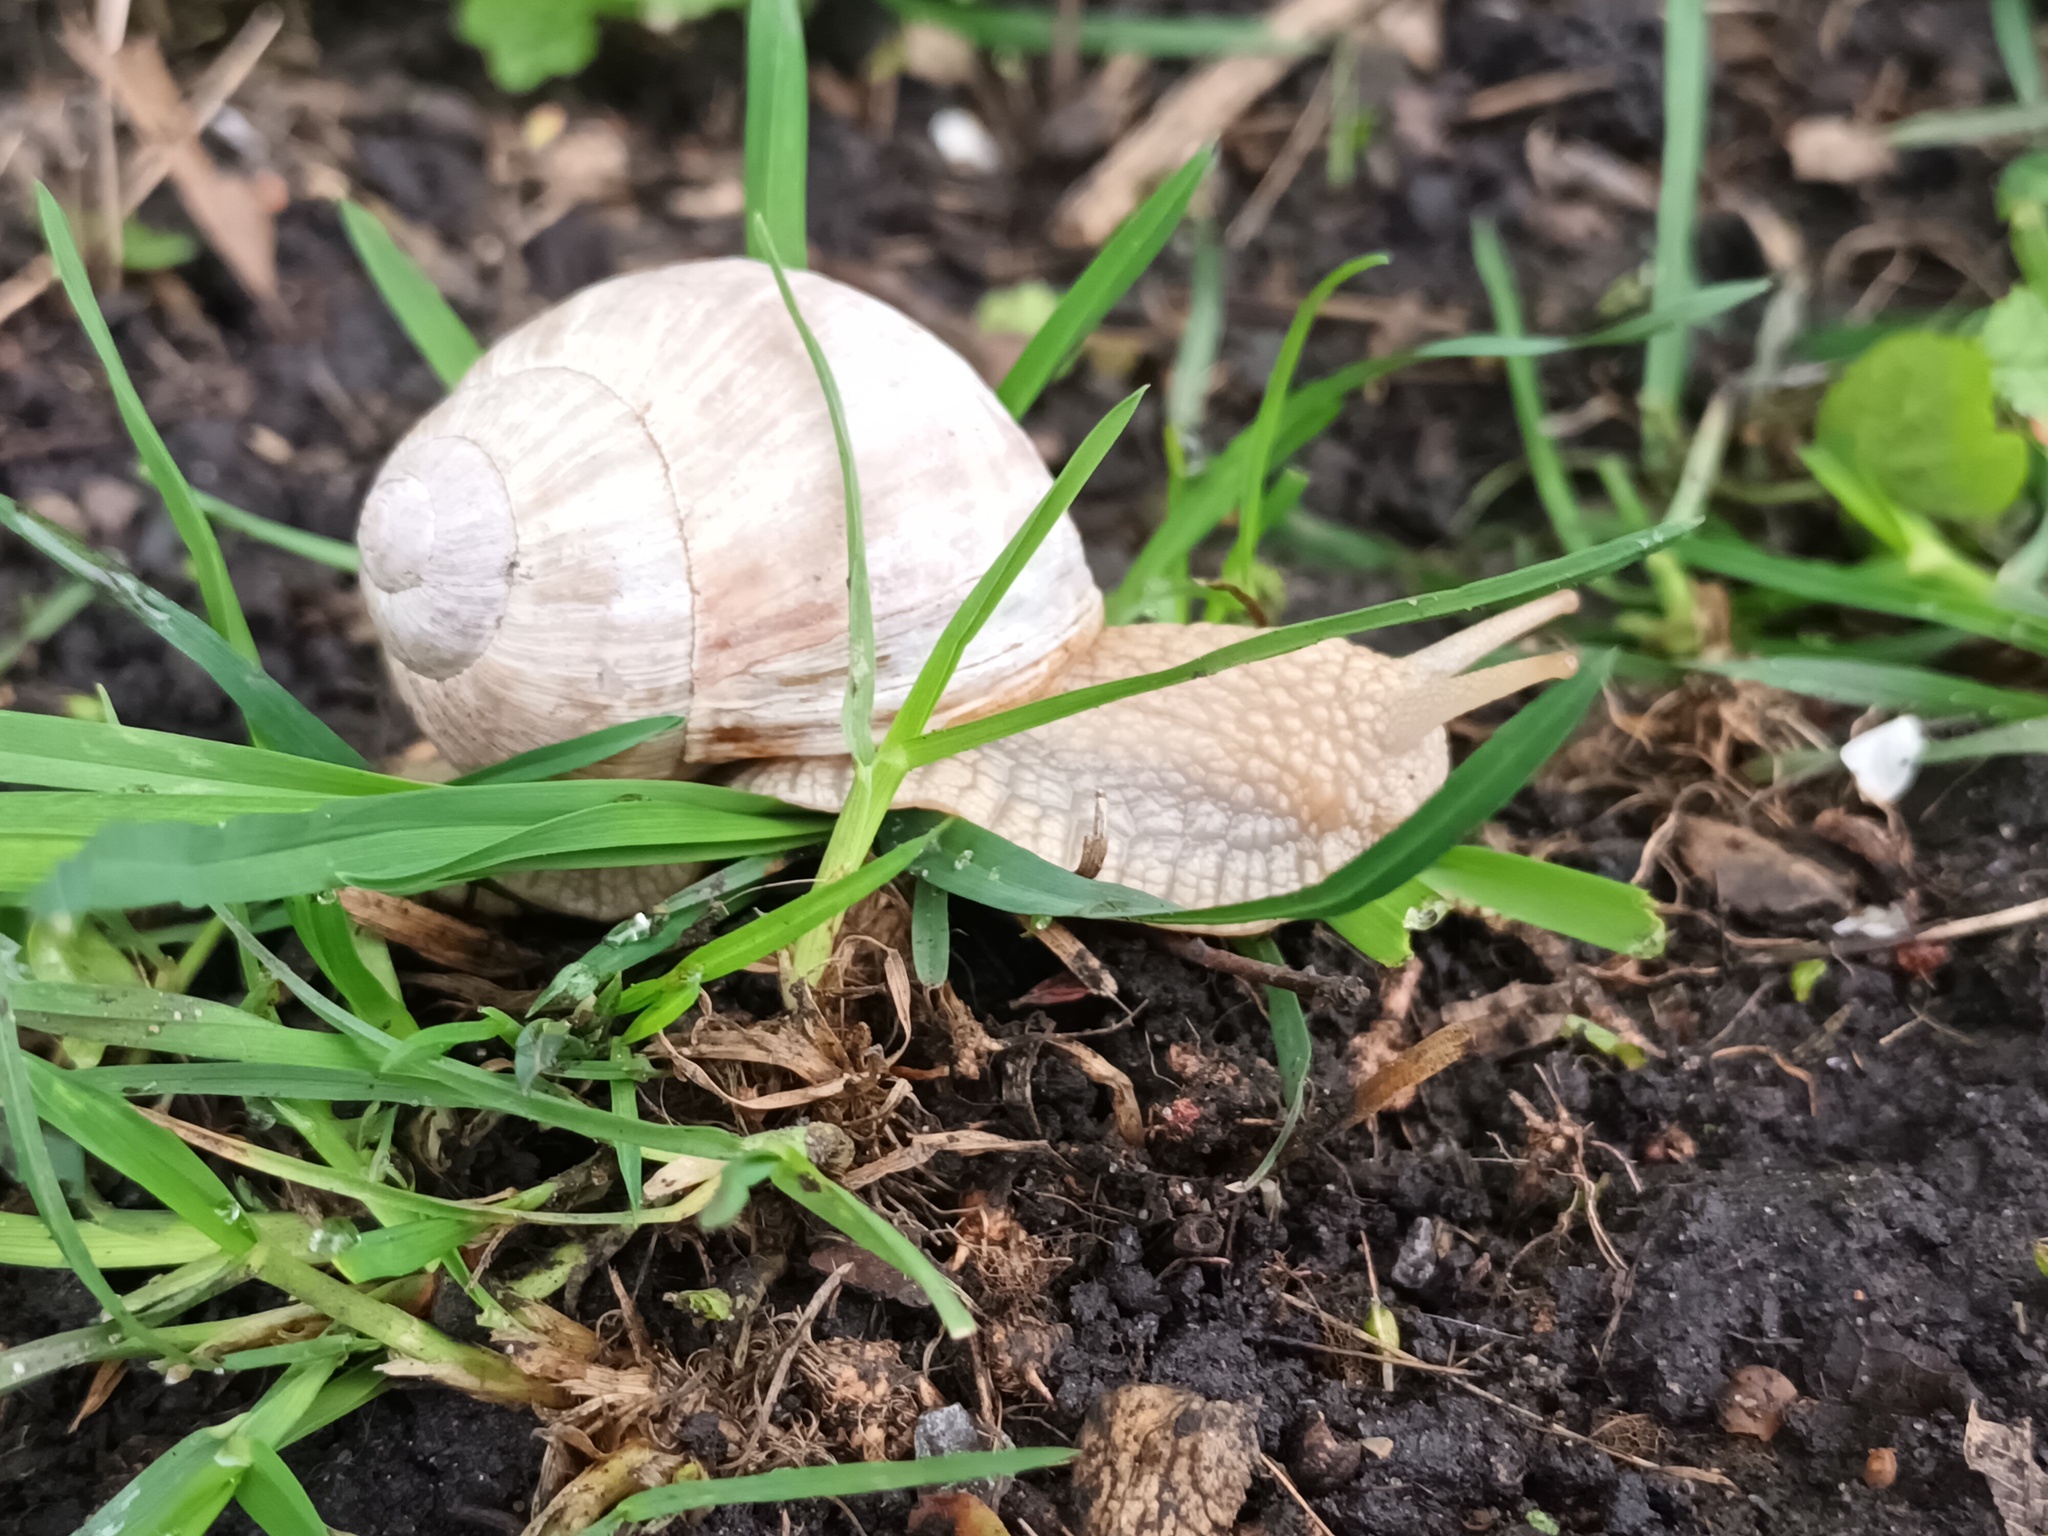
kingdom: Animalia
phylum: Mollusca
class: Gastropoda
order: Stylommatophora
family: Helicidae
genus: Helix
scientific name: Helix pomatia
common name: Roman snail
